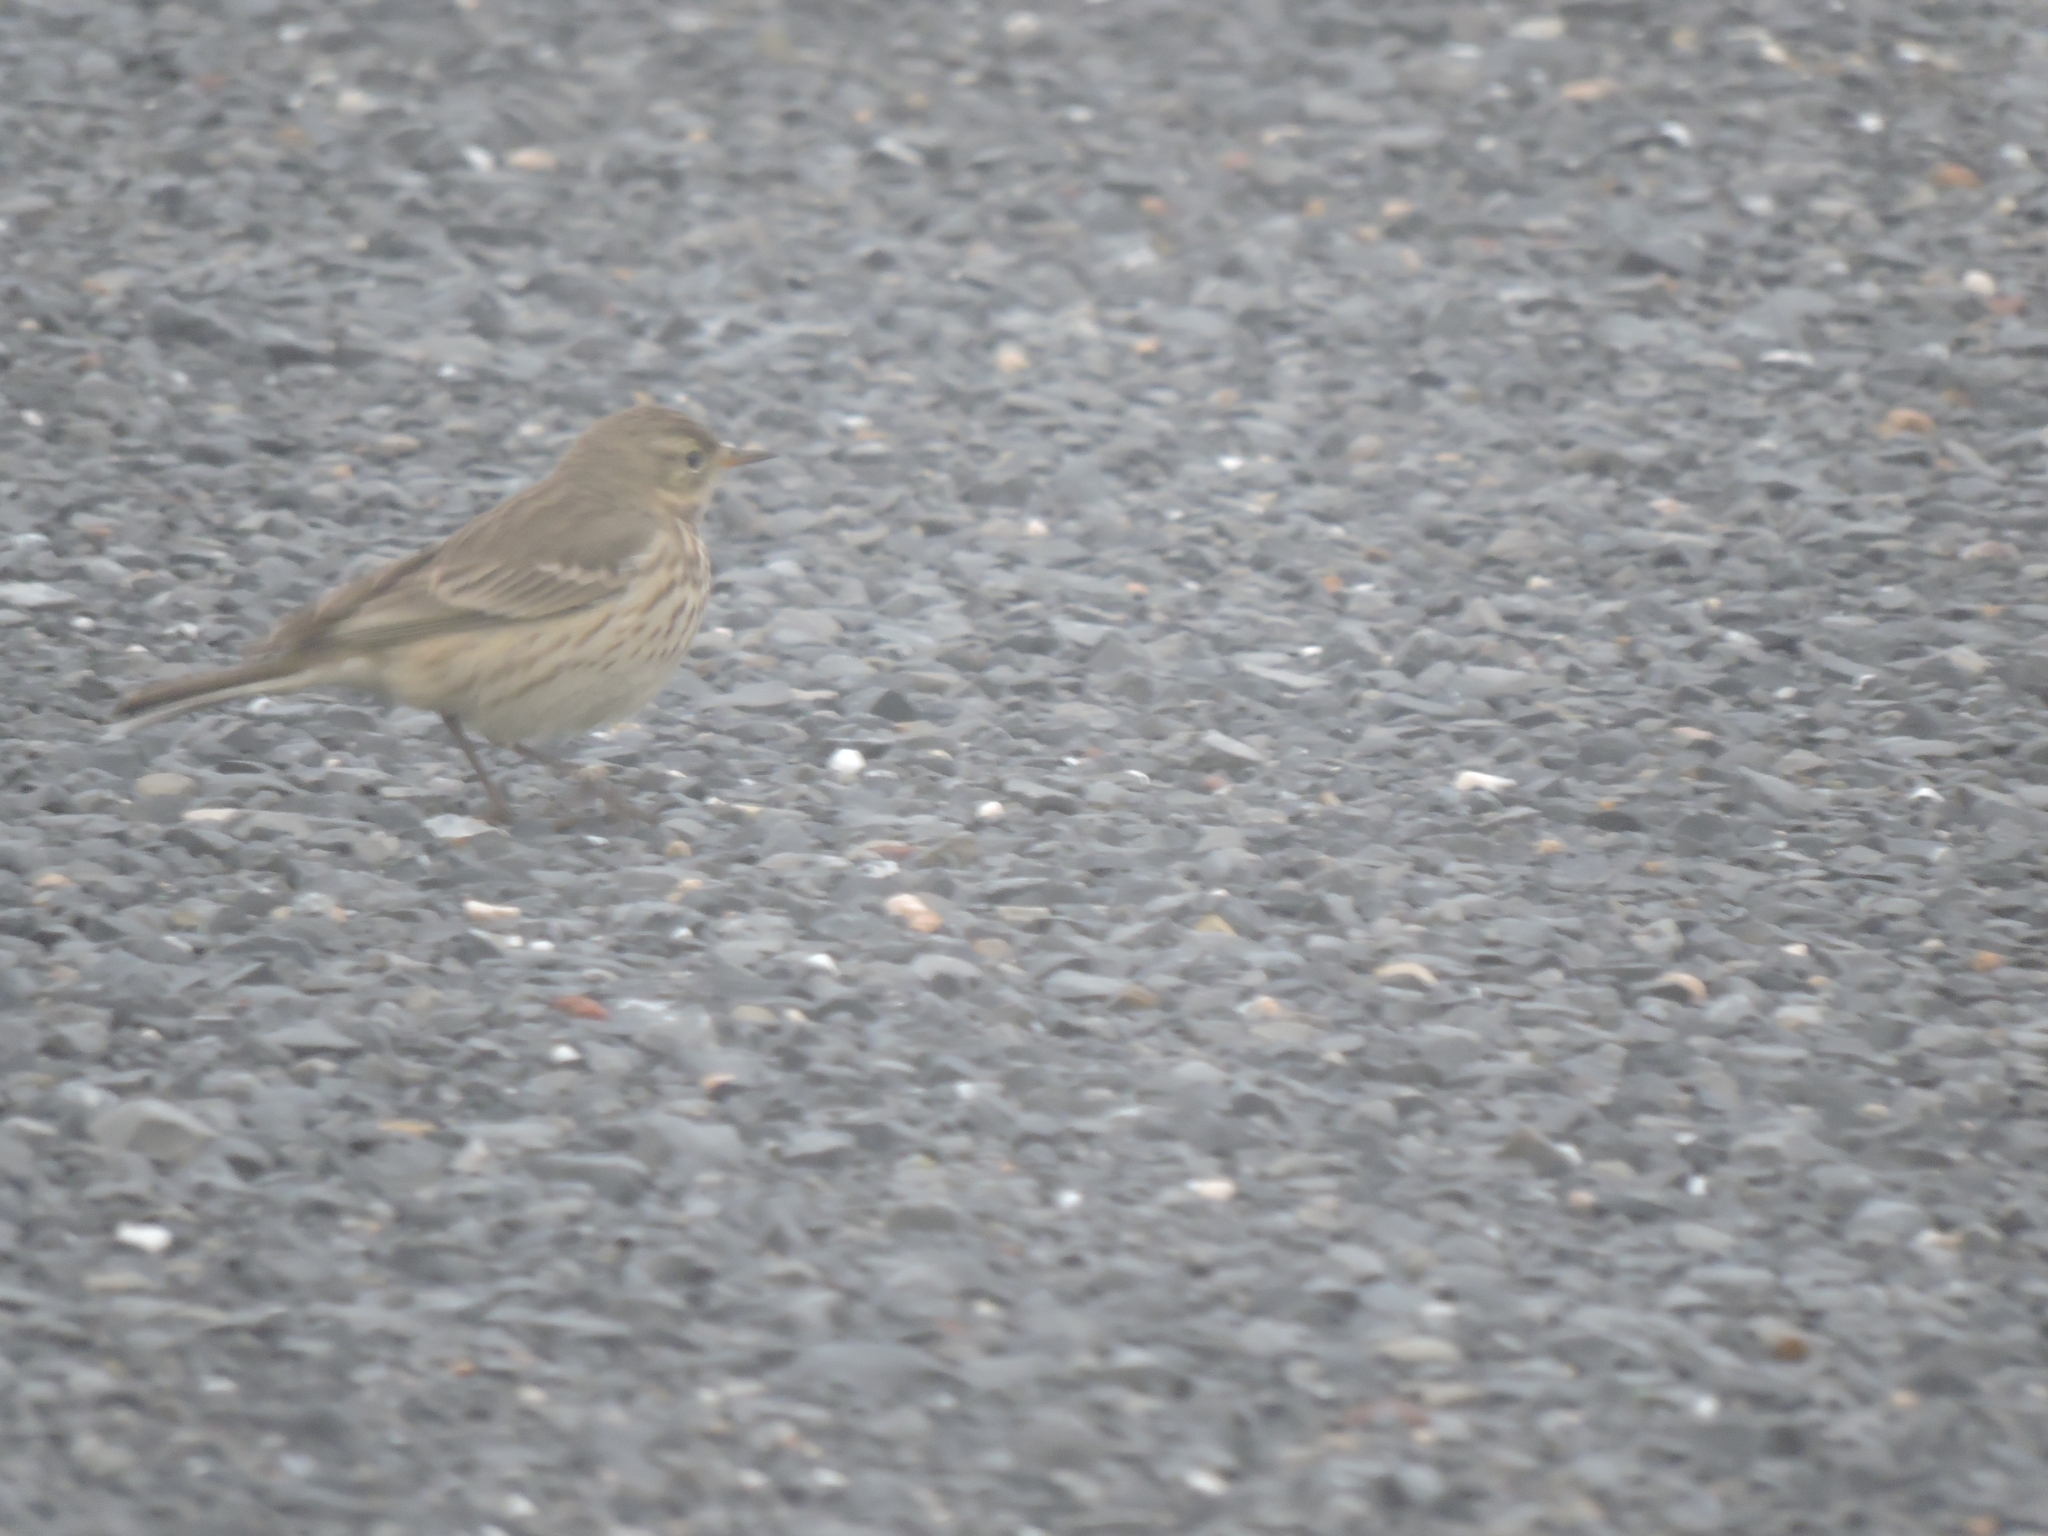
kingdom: Animalia
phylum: Chordata
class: Aves
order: Passeriformes
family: Motacillidae
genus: Anthus
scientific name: Anthus rubescens
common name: Buff-bellied pipit
